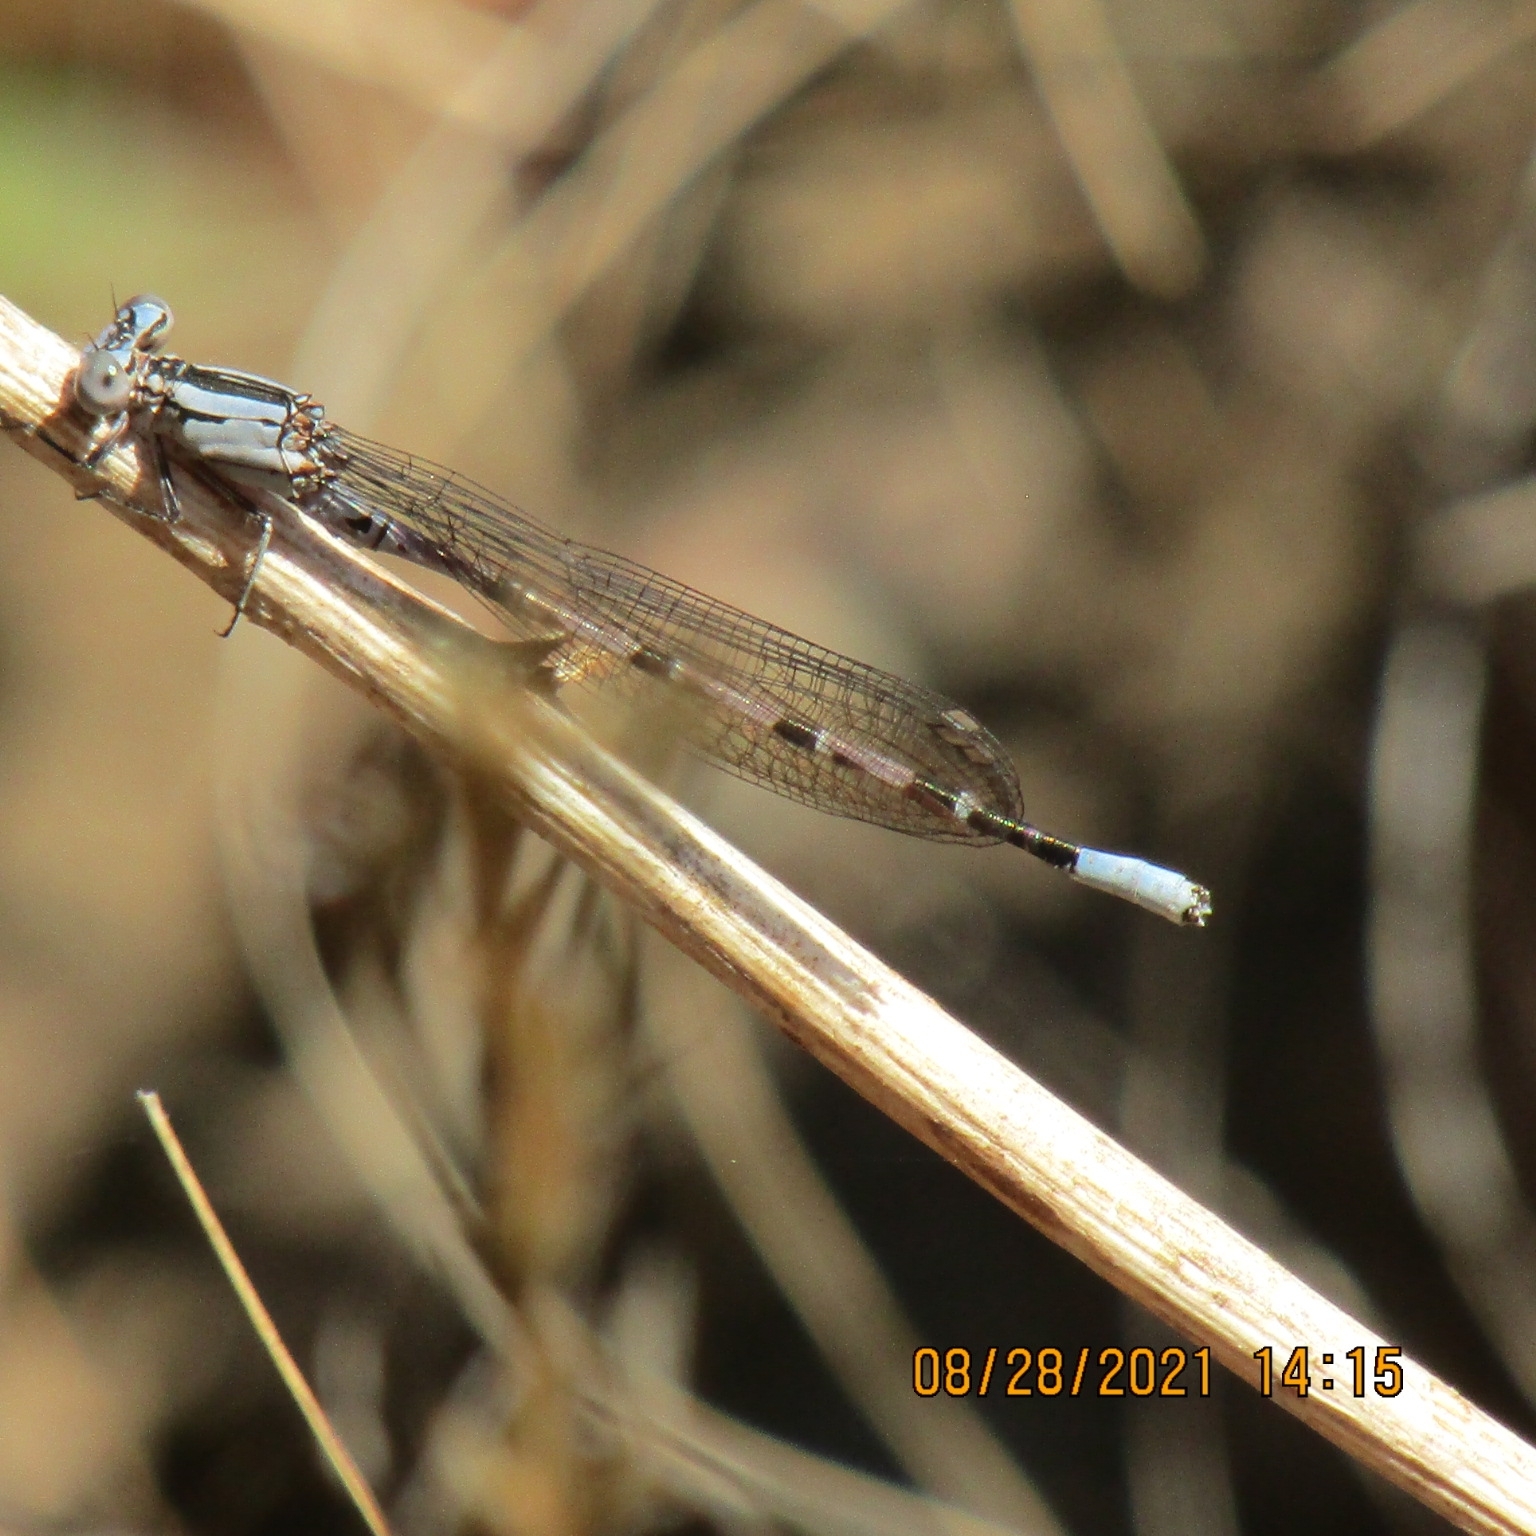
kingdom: Animalia
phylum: Arthropoda
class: Insecta
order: Odonata
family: Coenagrionidae
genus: Argia
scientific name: Argia vivida
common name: Vivid dancer
